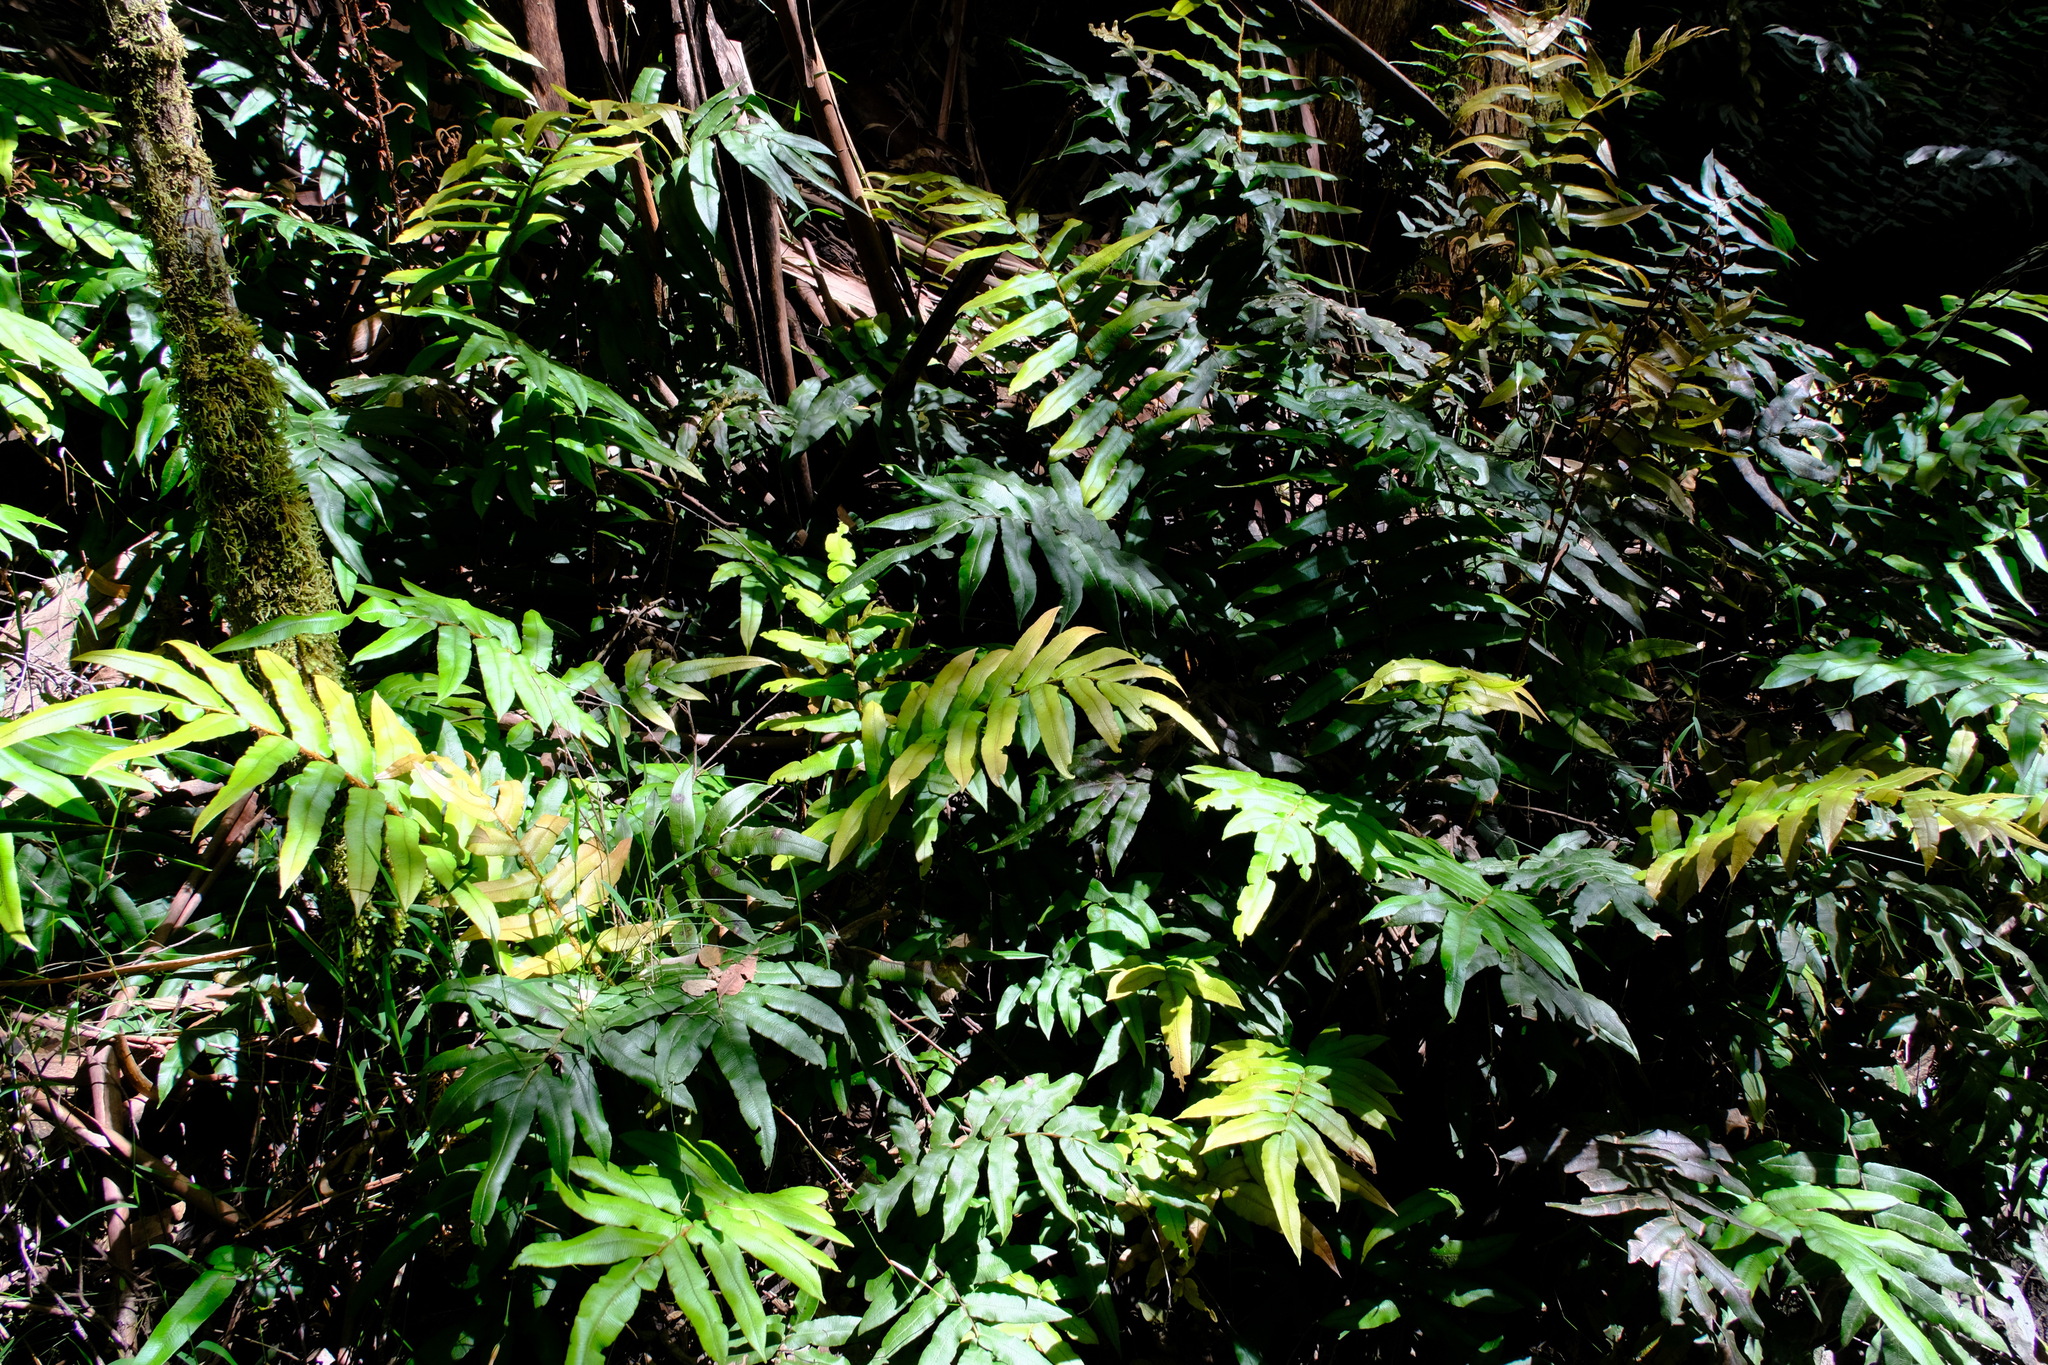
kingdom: Plantae
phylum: Tracheophyta
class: Polypodiopsida
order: Polypodiales
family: Blechnaceae
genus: Parablechnum
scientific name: Parablechnum wattsii
